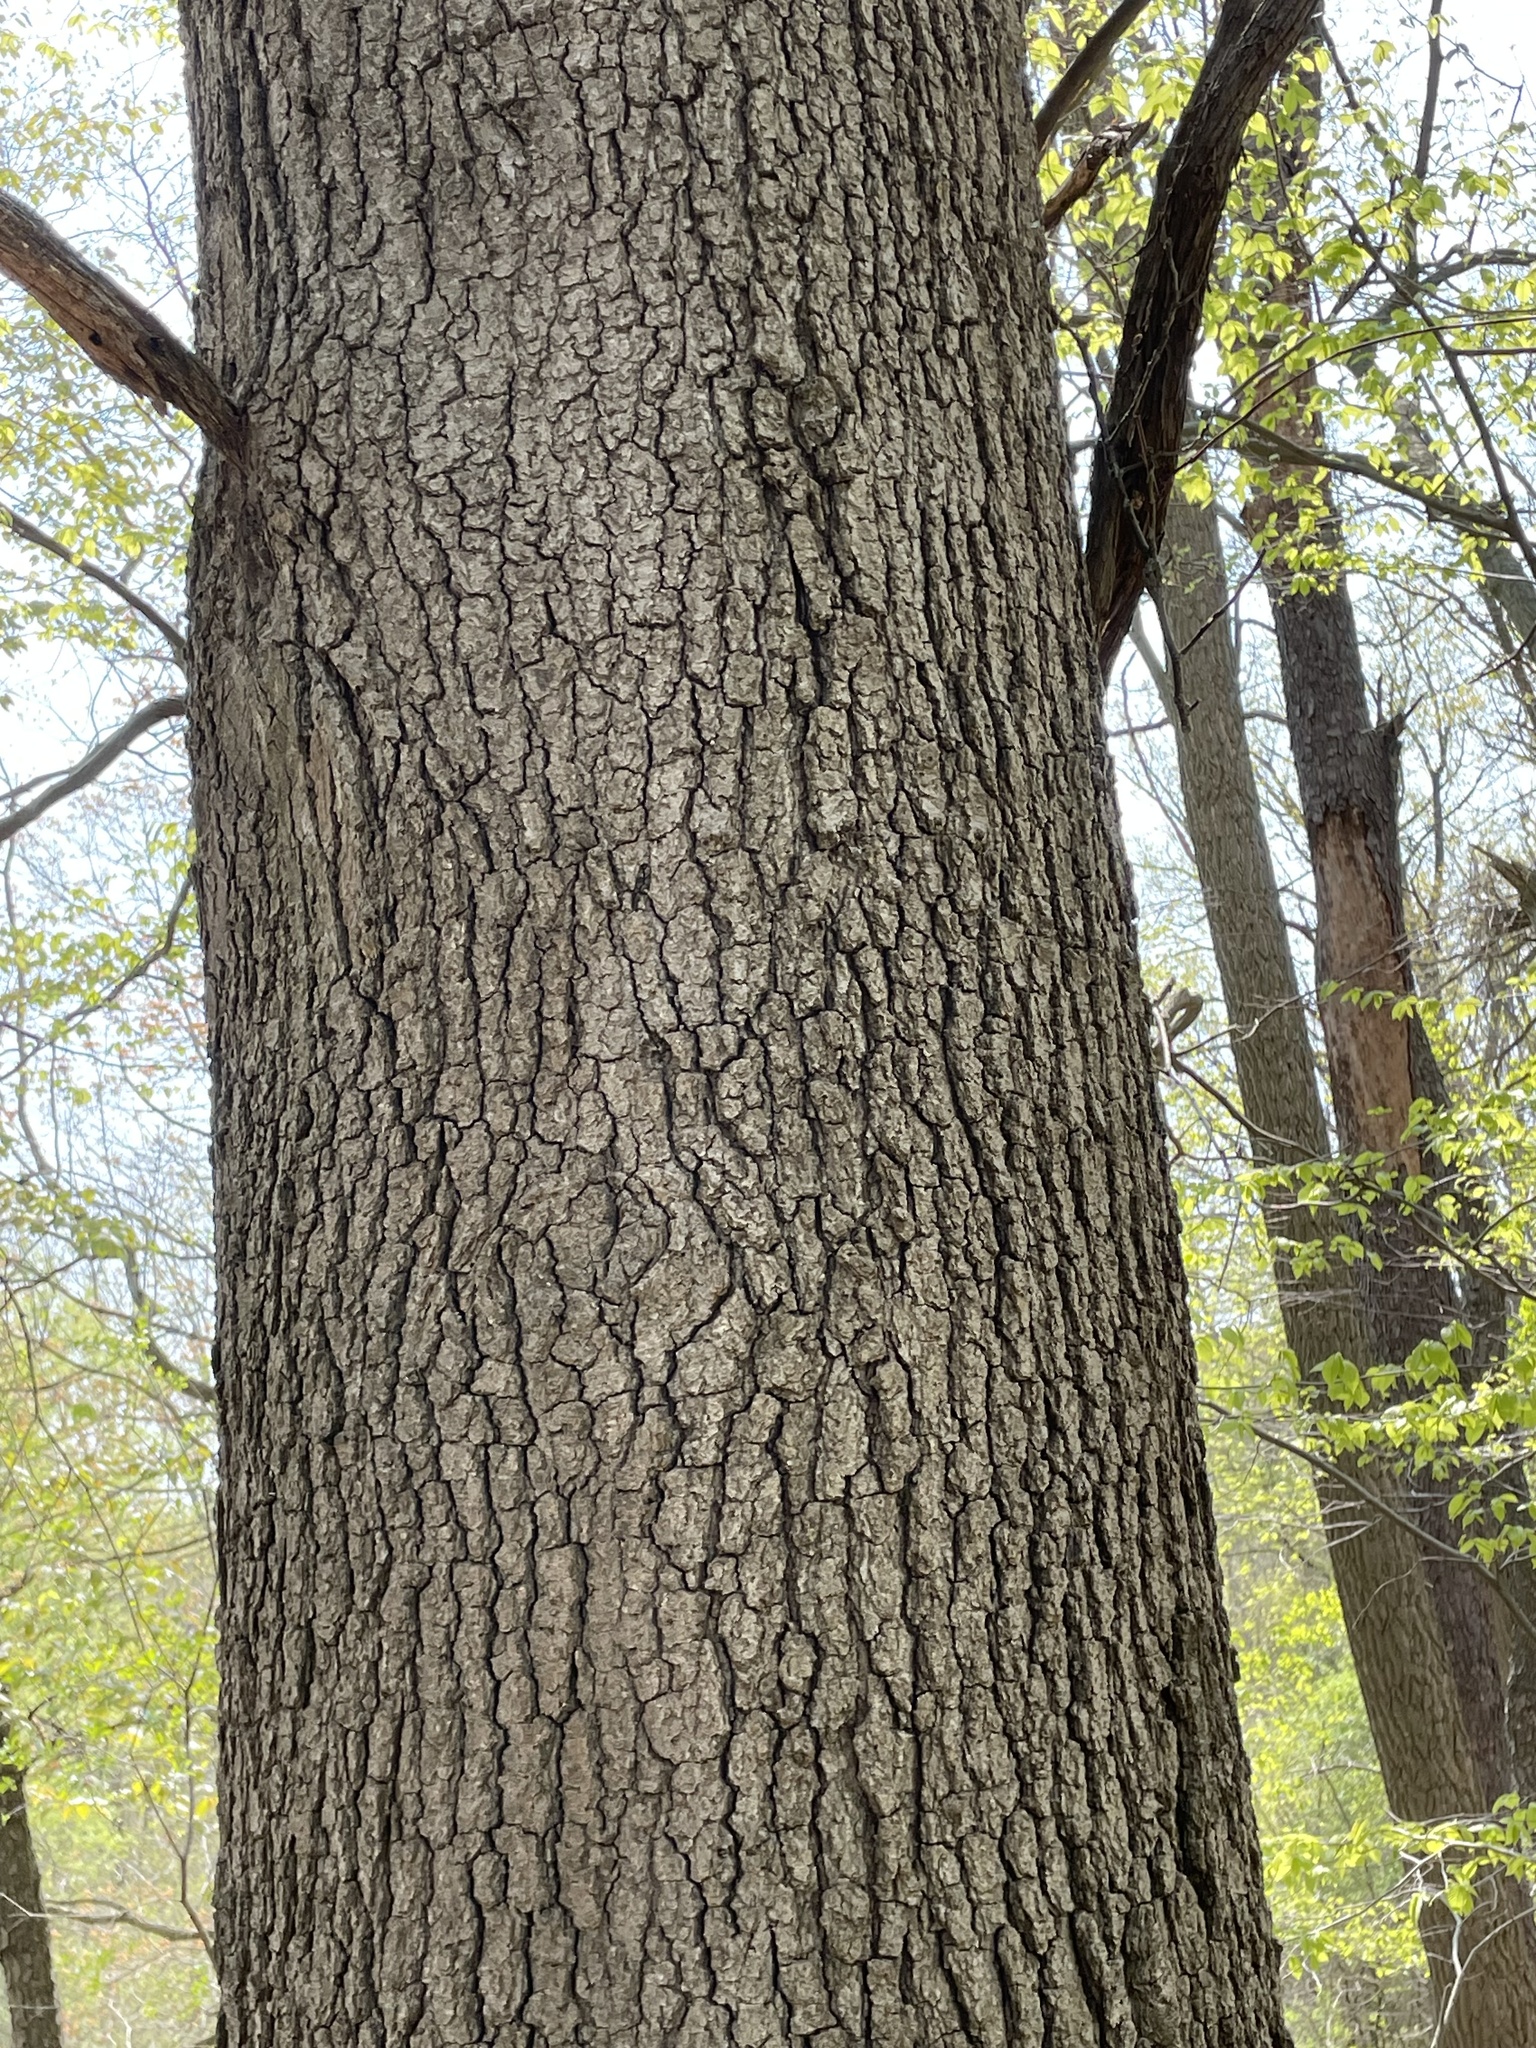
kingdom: Plantae
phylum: Tracheophyta
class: Magnoliopsida
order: Fagales
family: Fagaceae
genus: Quercus
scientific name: Quercus velutina
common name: Black oak
